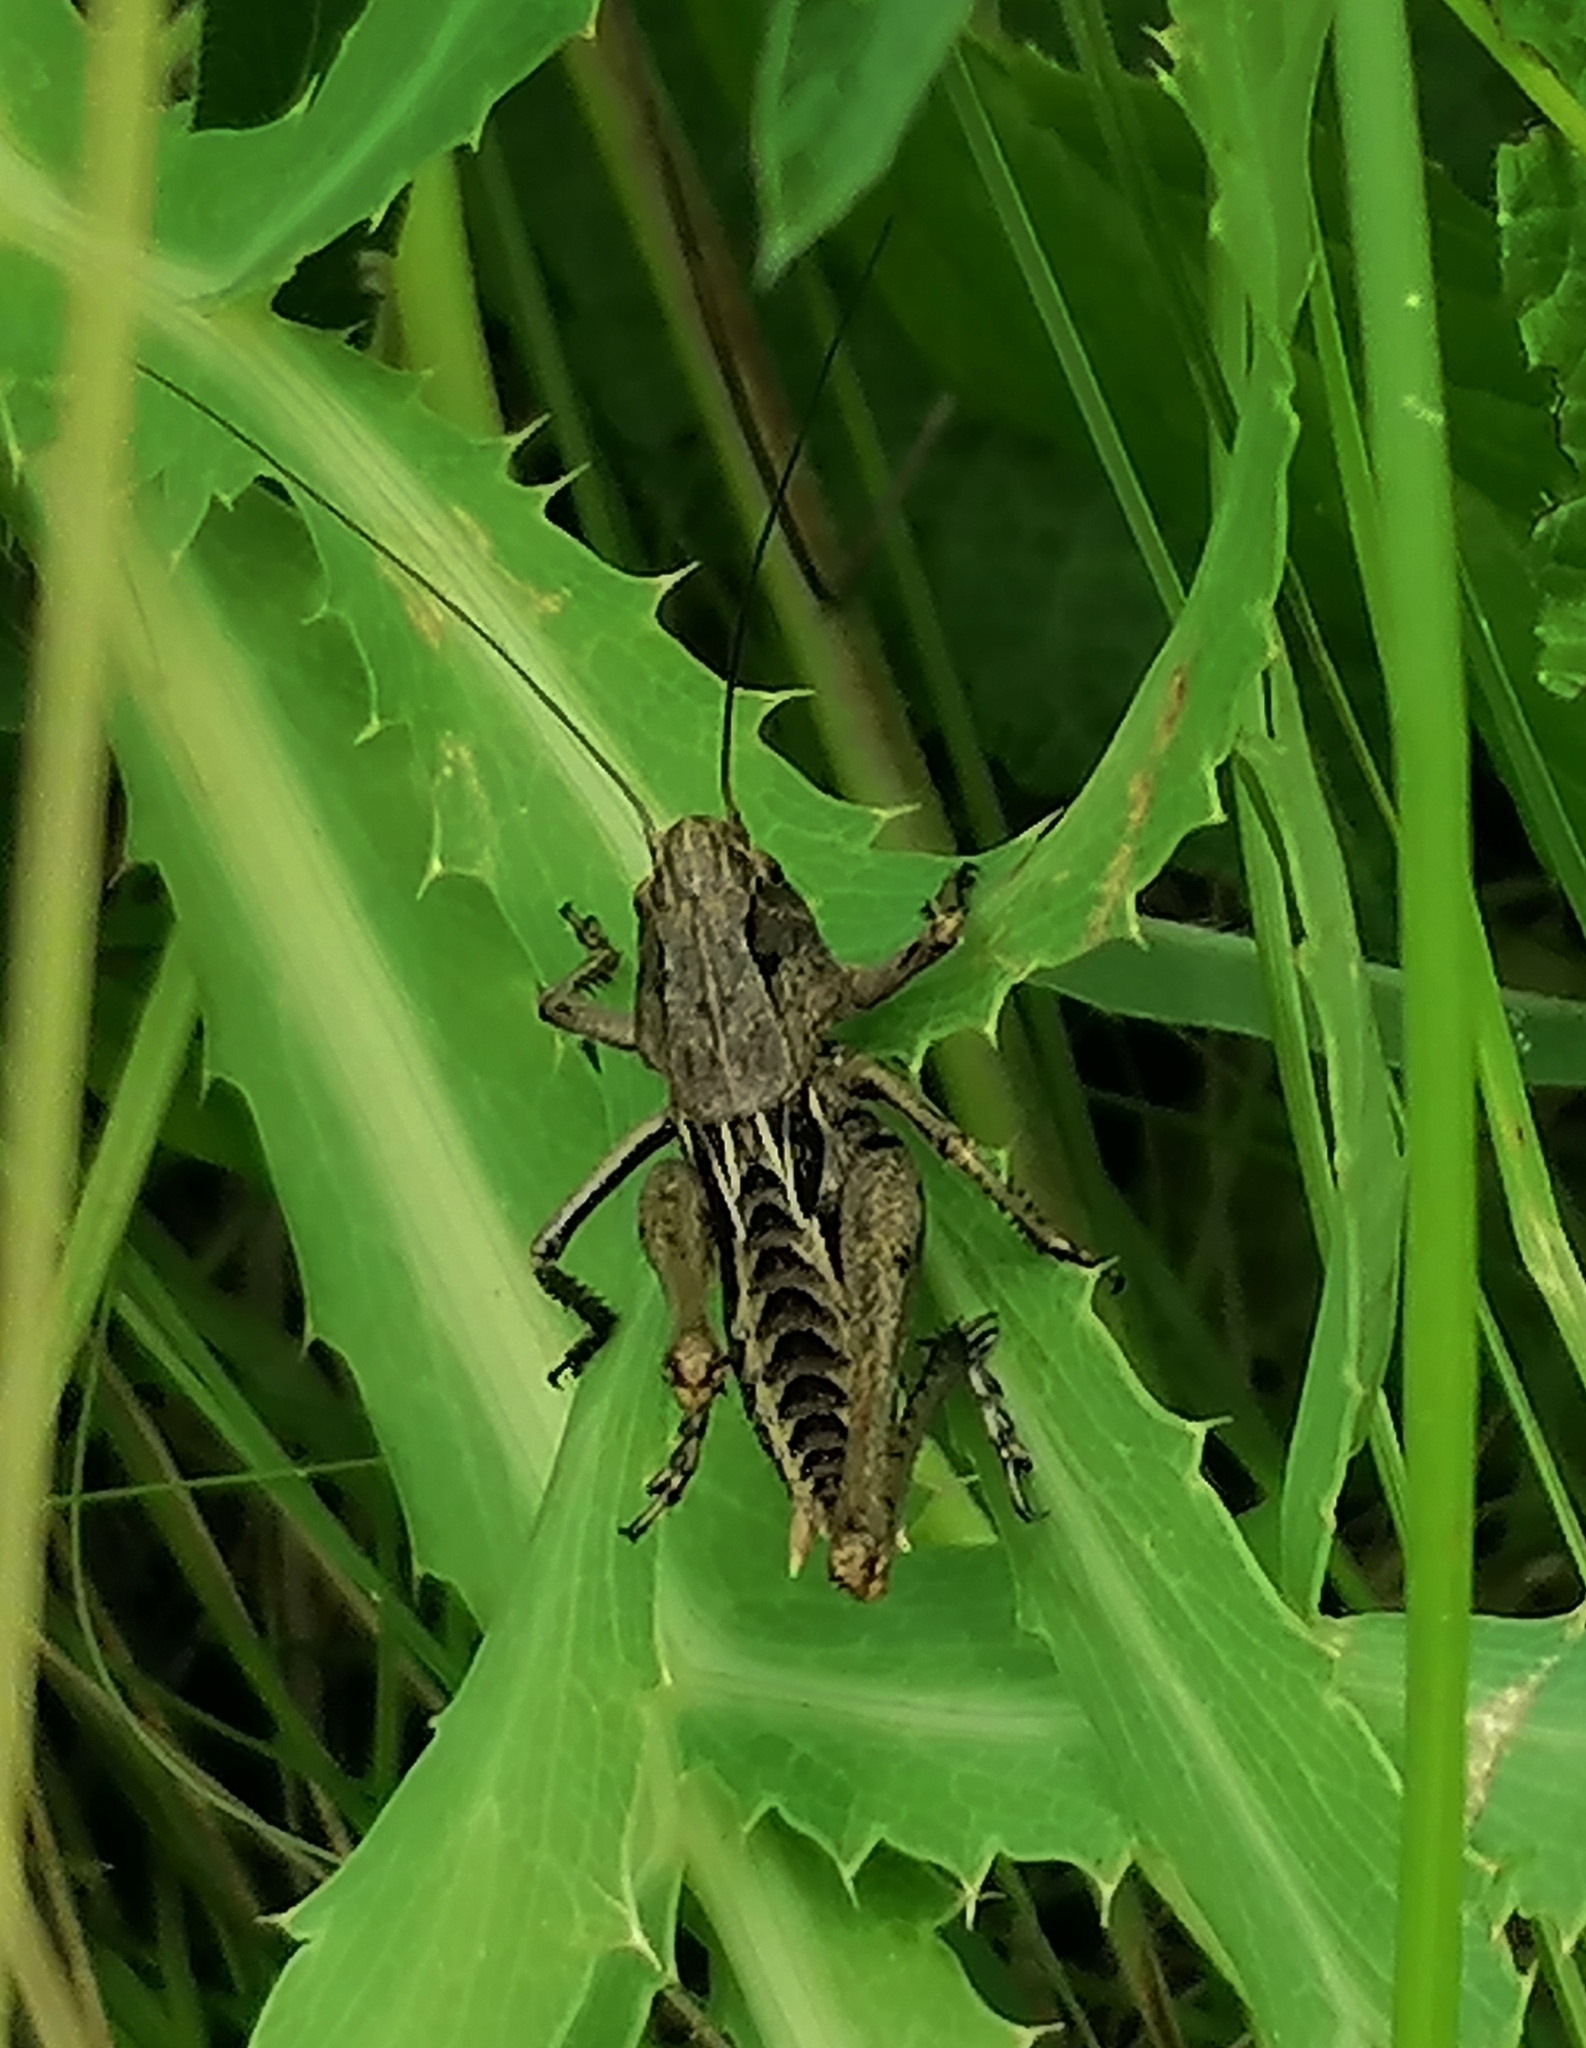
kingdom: Animalia
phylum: Arthropoda
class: Insecta
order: Orthoptera
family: Tettigoniidae
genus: Decticus
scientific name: Decticus verrucivorus
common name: Wart-biter
